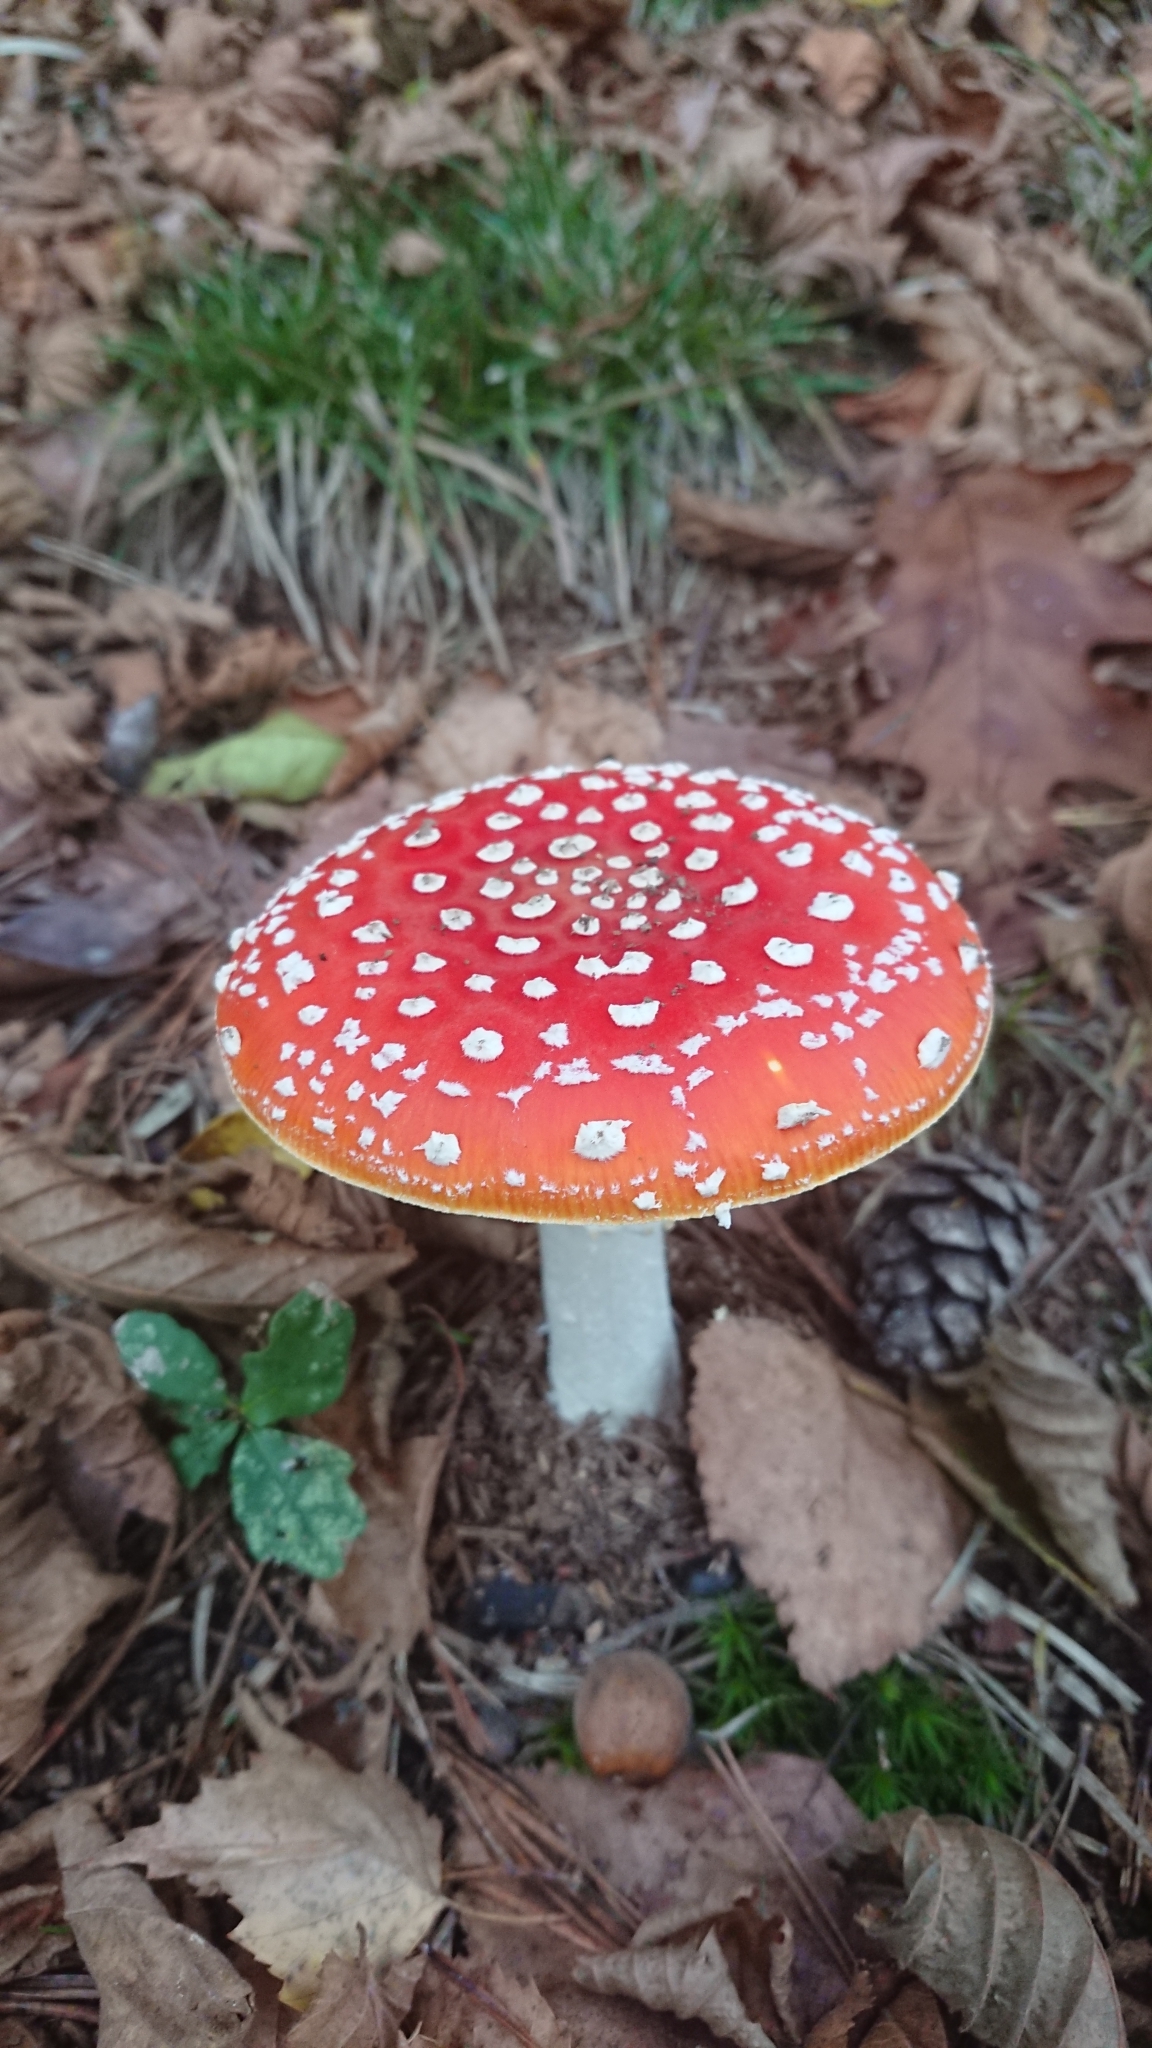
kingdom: Fungi
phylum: Basidiomycota
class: Agaricomycetes
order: Agaricales
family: Amanitaceae
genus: Amanita
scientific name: Amanita muscaria
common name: Fly agaric
